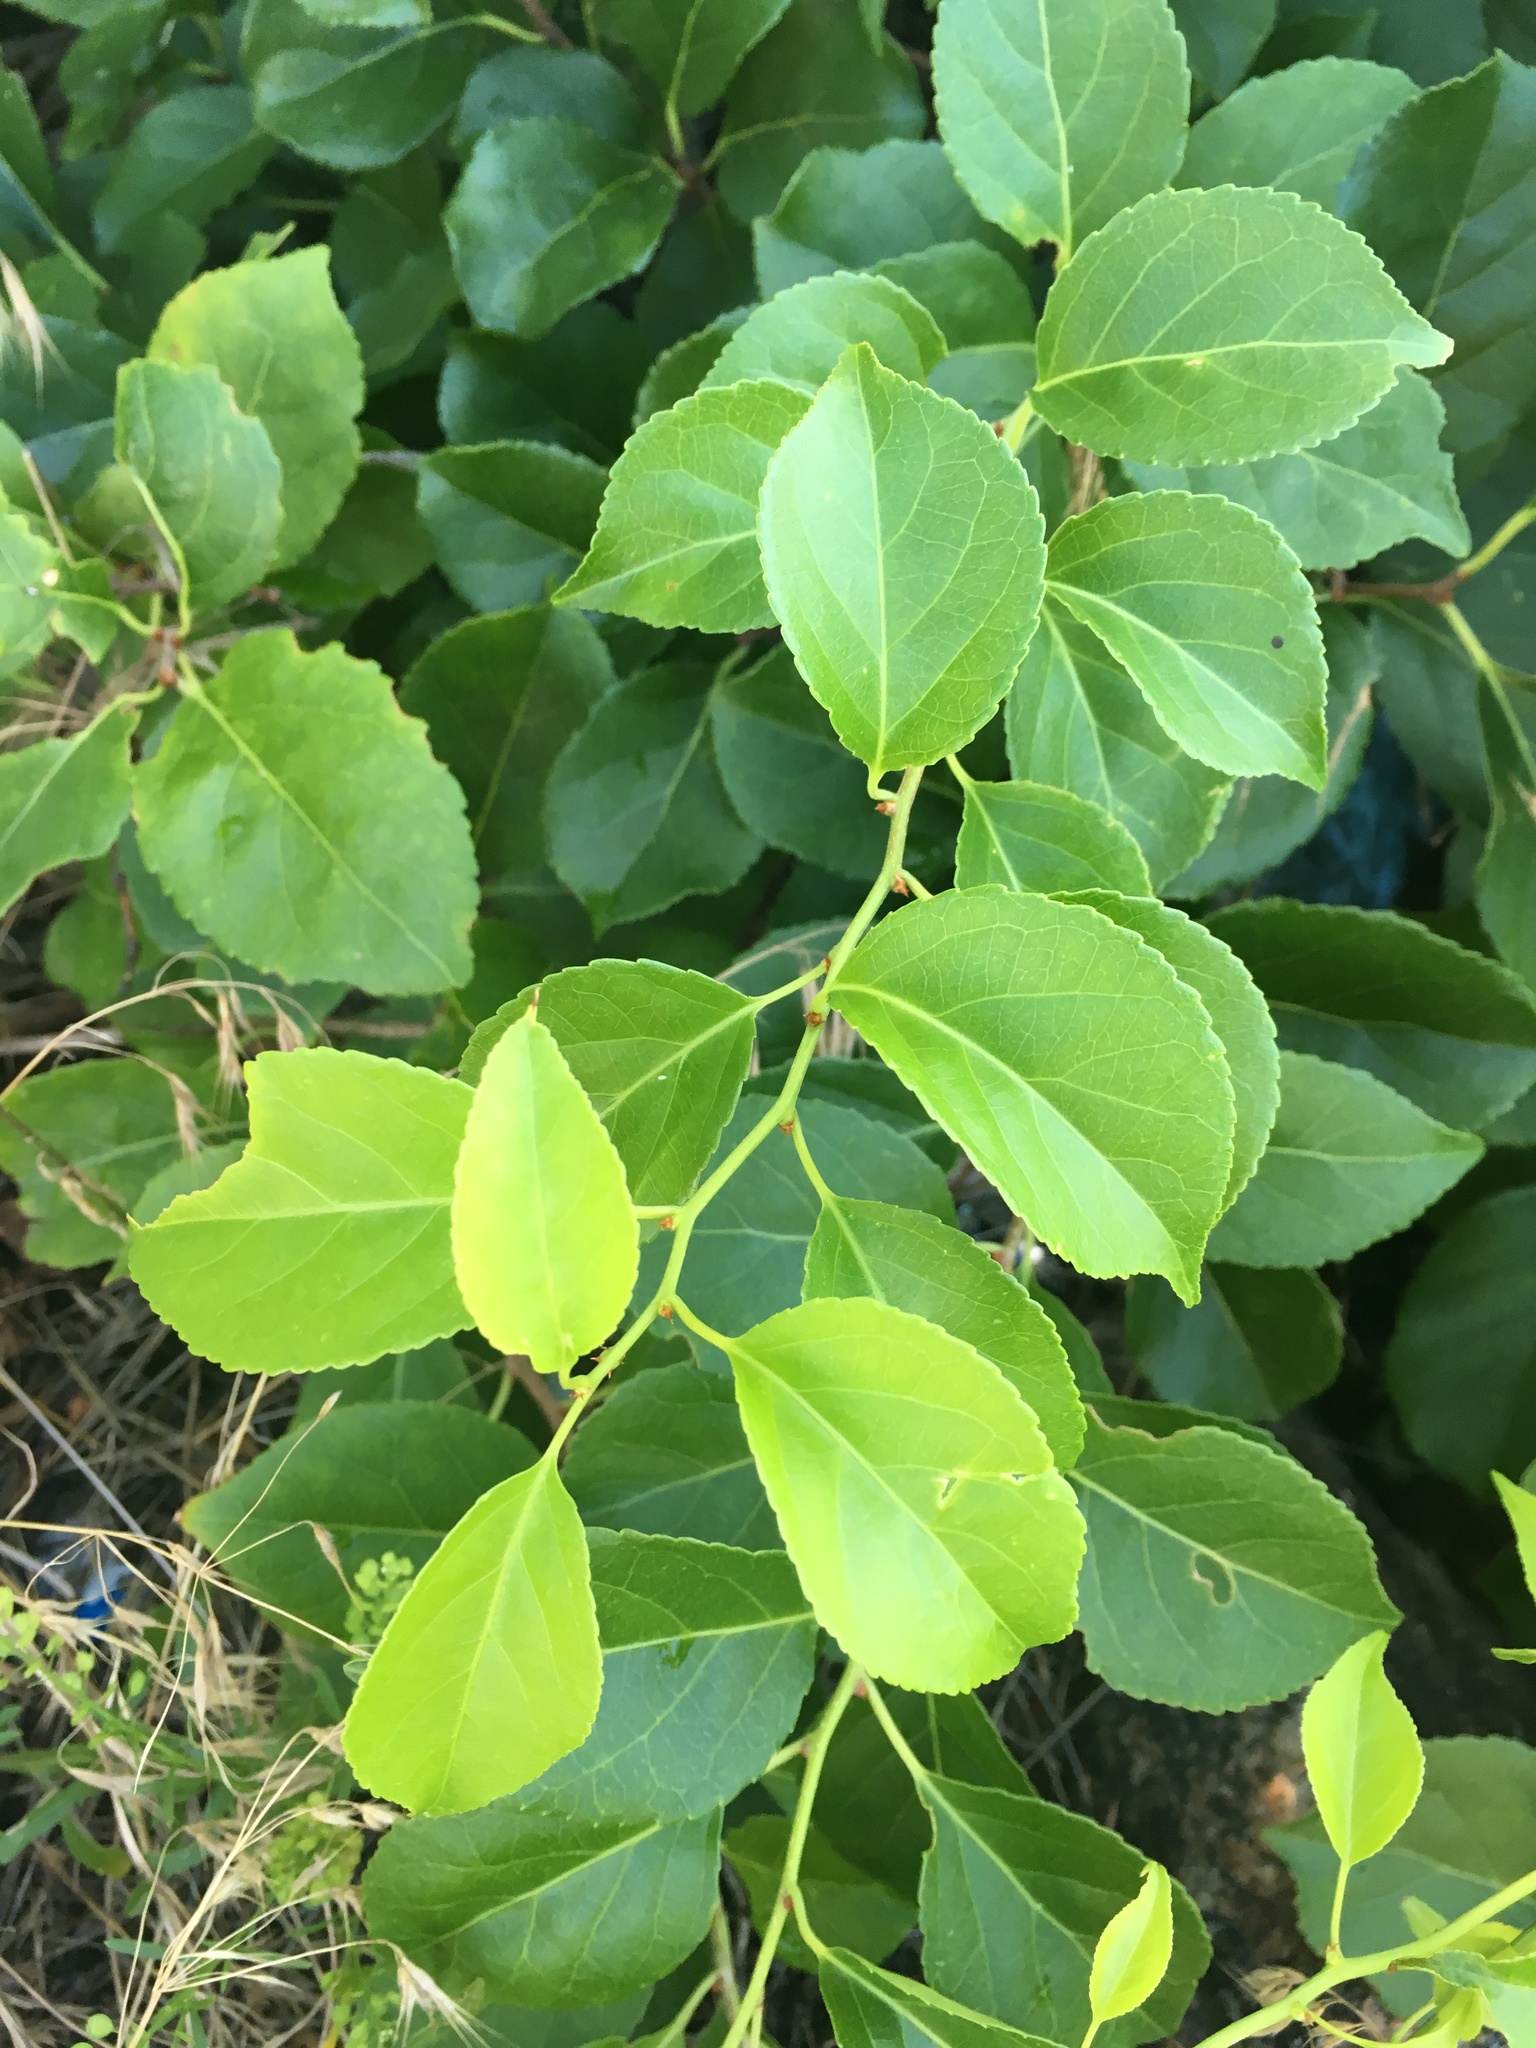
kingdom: Plantae
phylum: Tracheophyta
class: Magnoliopsida
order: Celastrales
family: Celastraceae
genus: Celastrus
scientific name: Celastrus orbiculatus
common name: Oriental bittersweet
